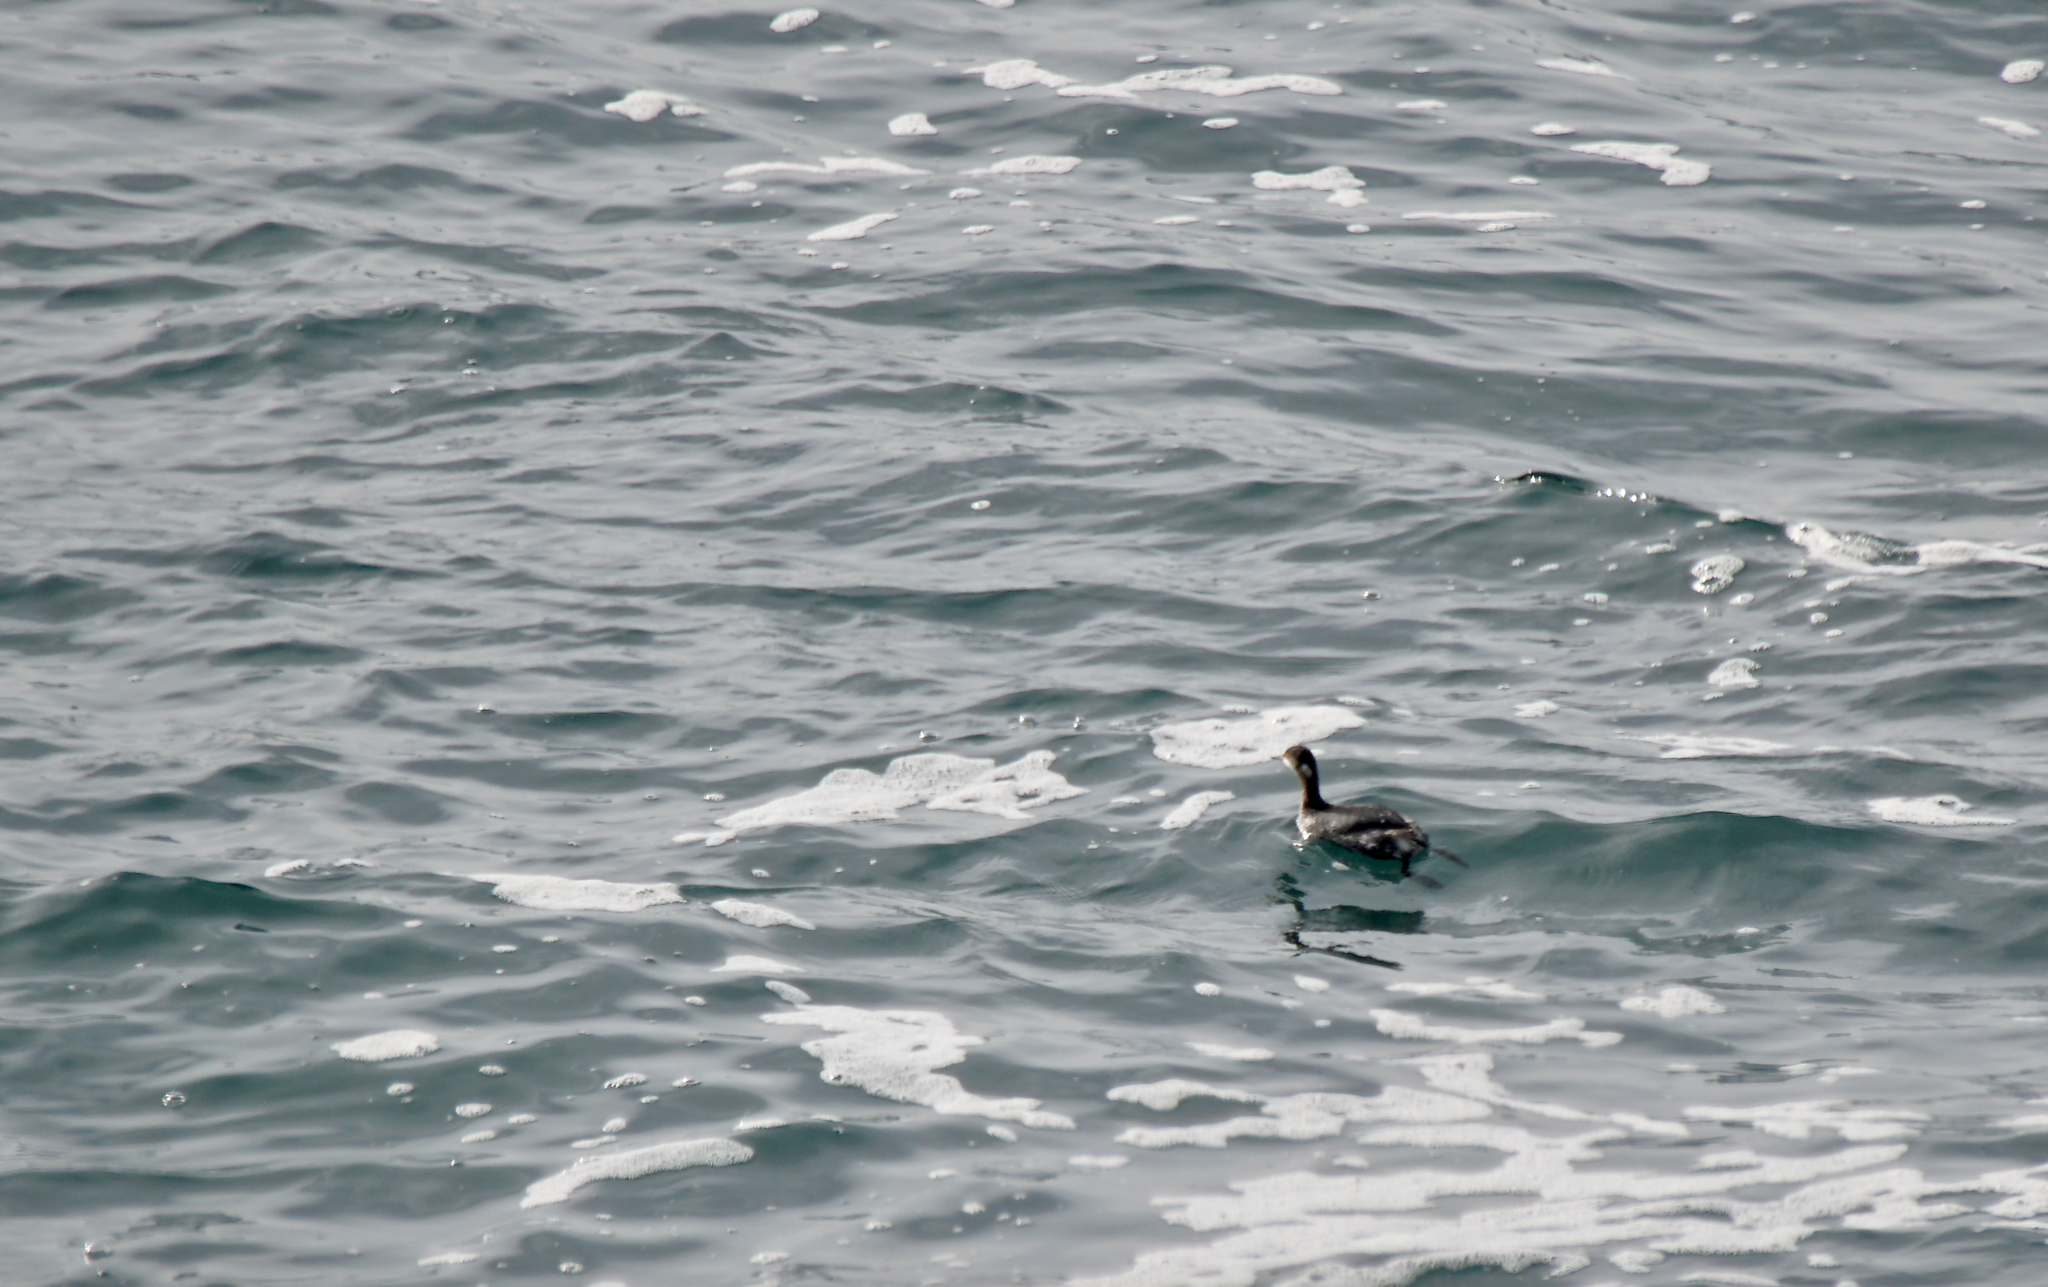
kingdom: Animalia
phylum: Chordata
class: Aves
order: Podicipediformes
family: Podicipedidae
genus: Podiceps
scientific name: Podiceps nigricollis
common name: Black-necked grebe
